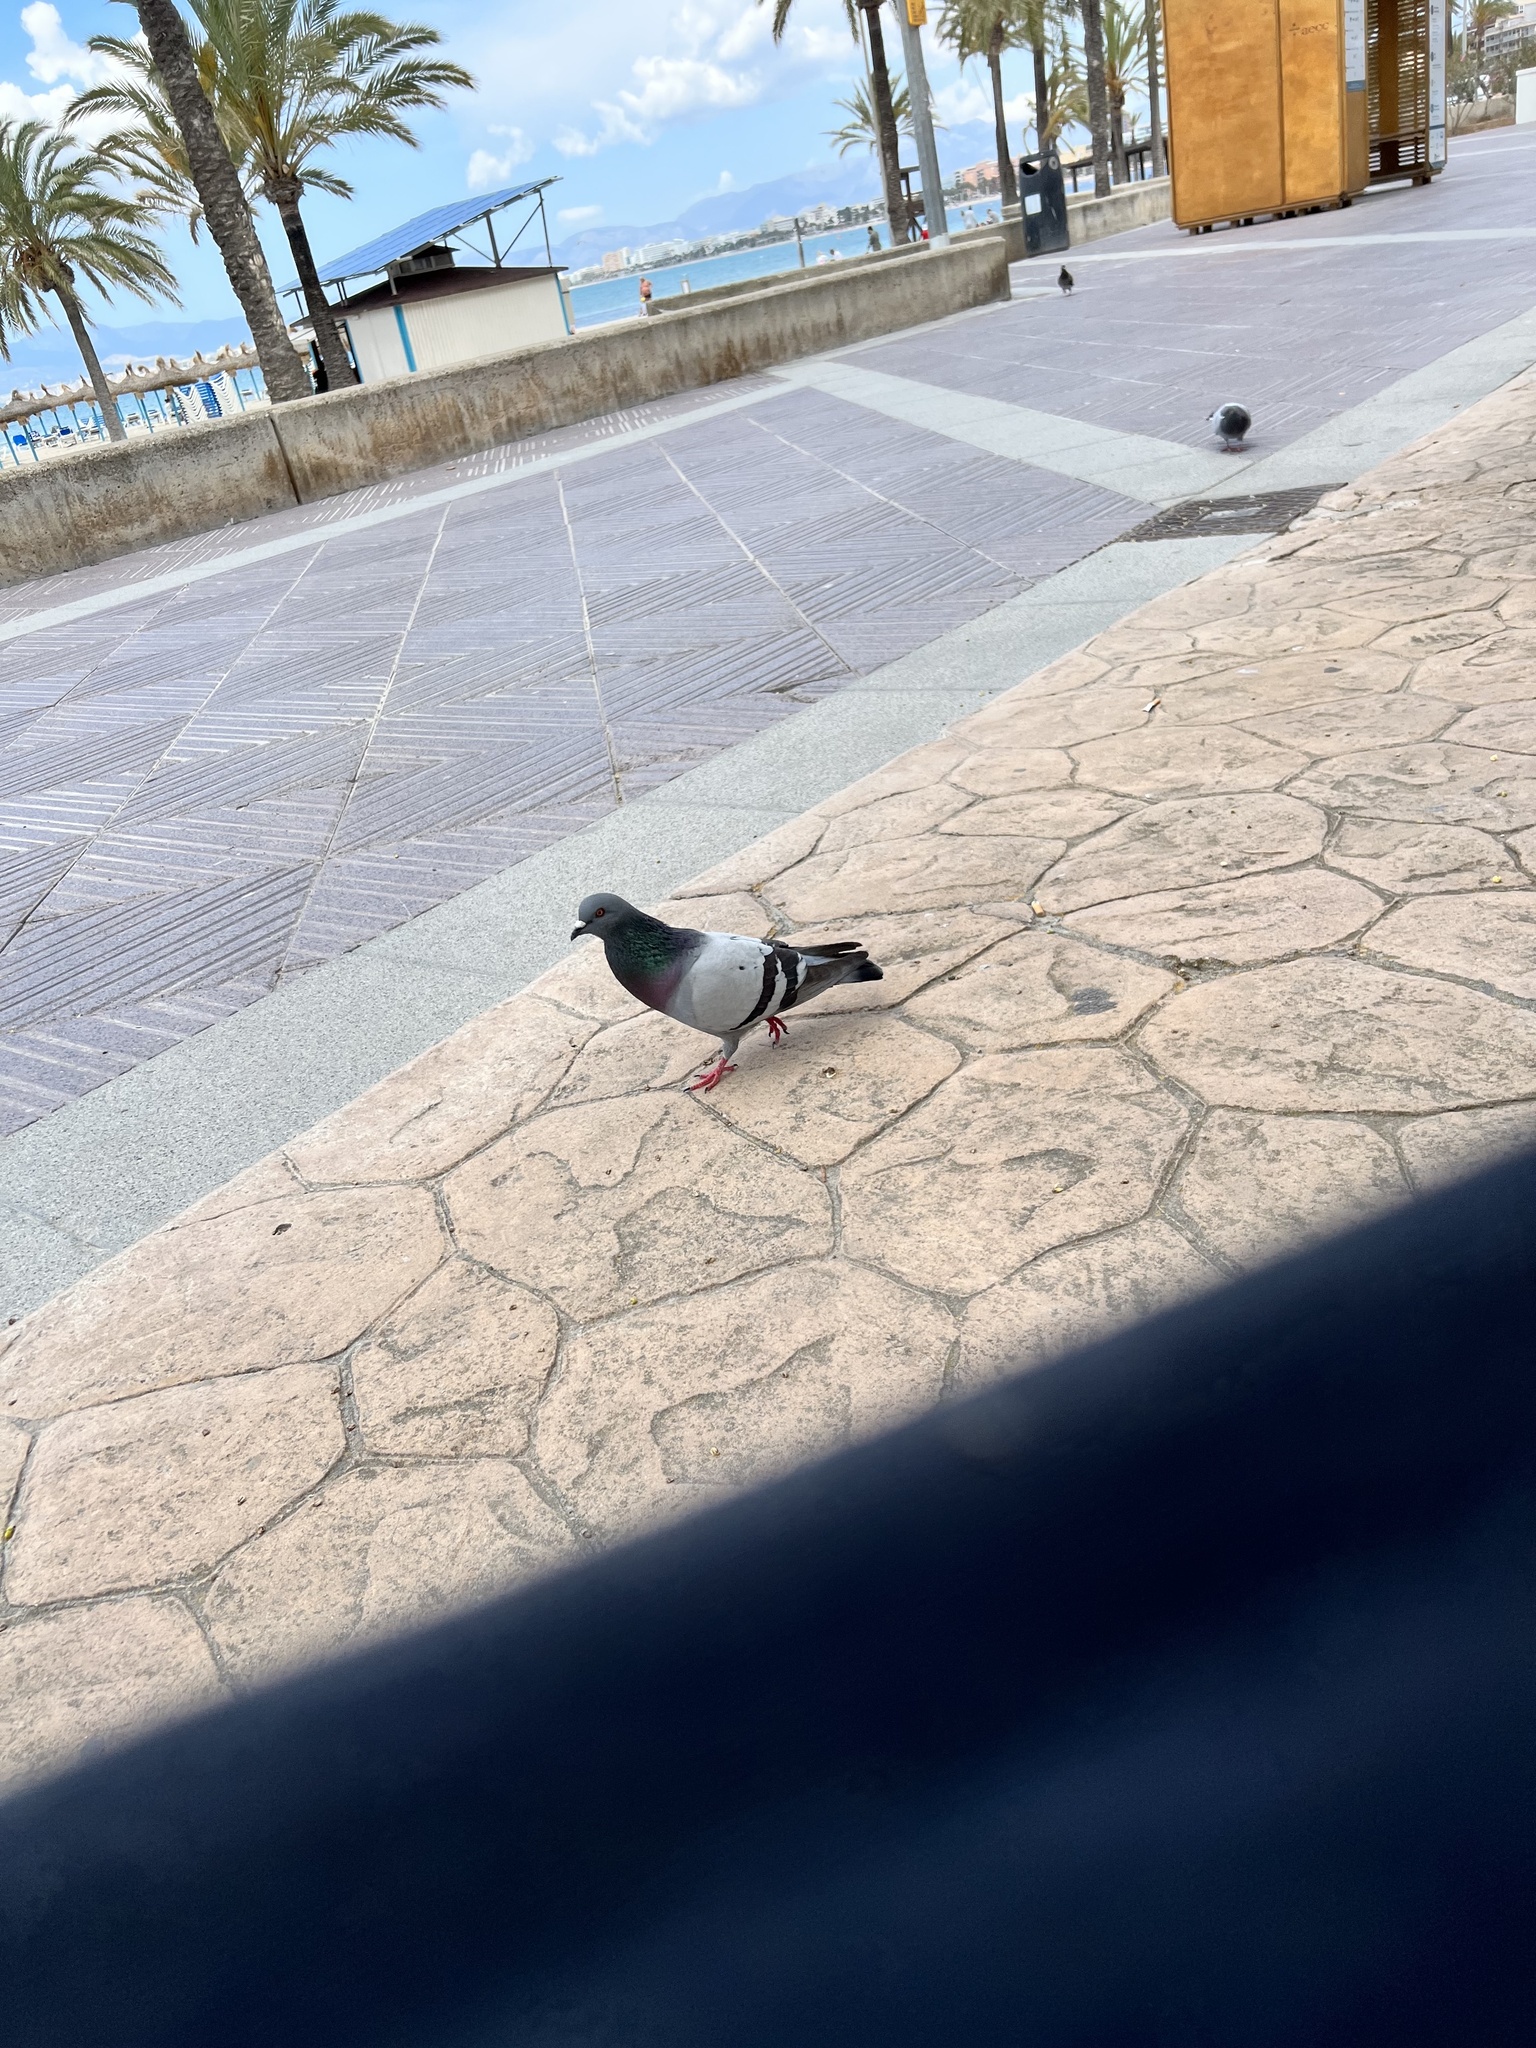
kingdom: Animalia
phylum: Chordata
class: Aves
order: Columbiformes
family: Columbidae
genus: Columba
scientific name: Columba livia
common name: Rock pigeon
